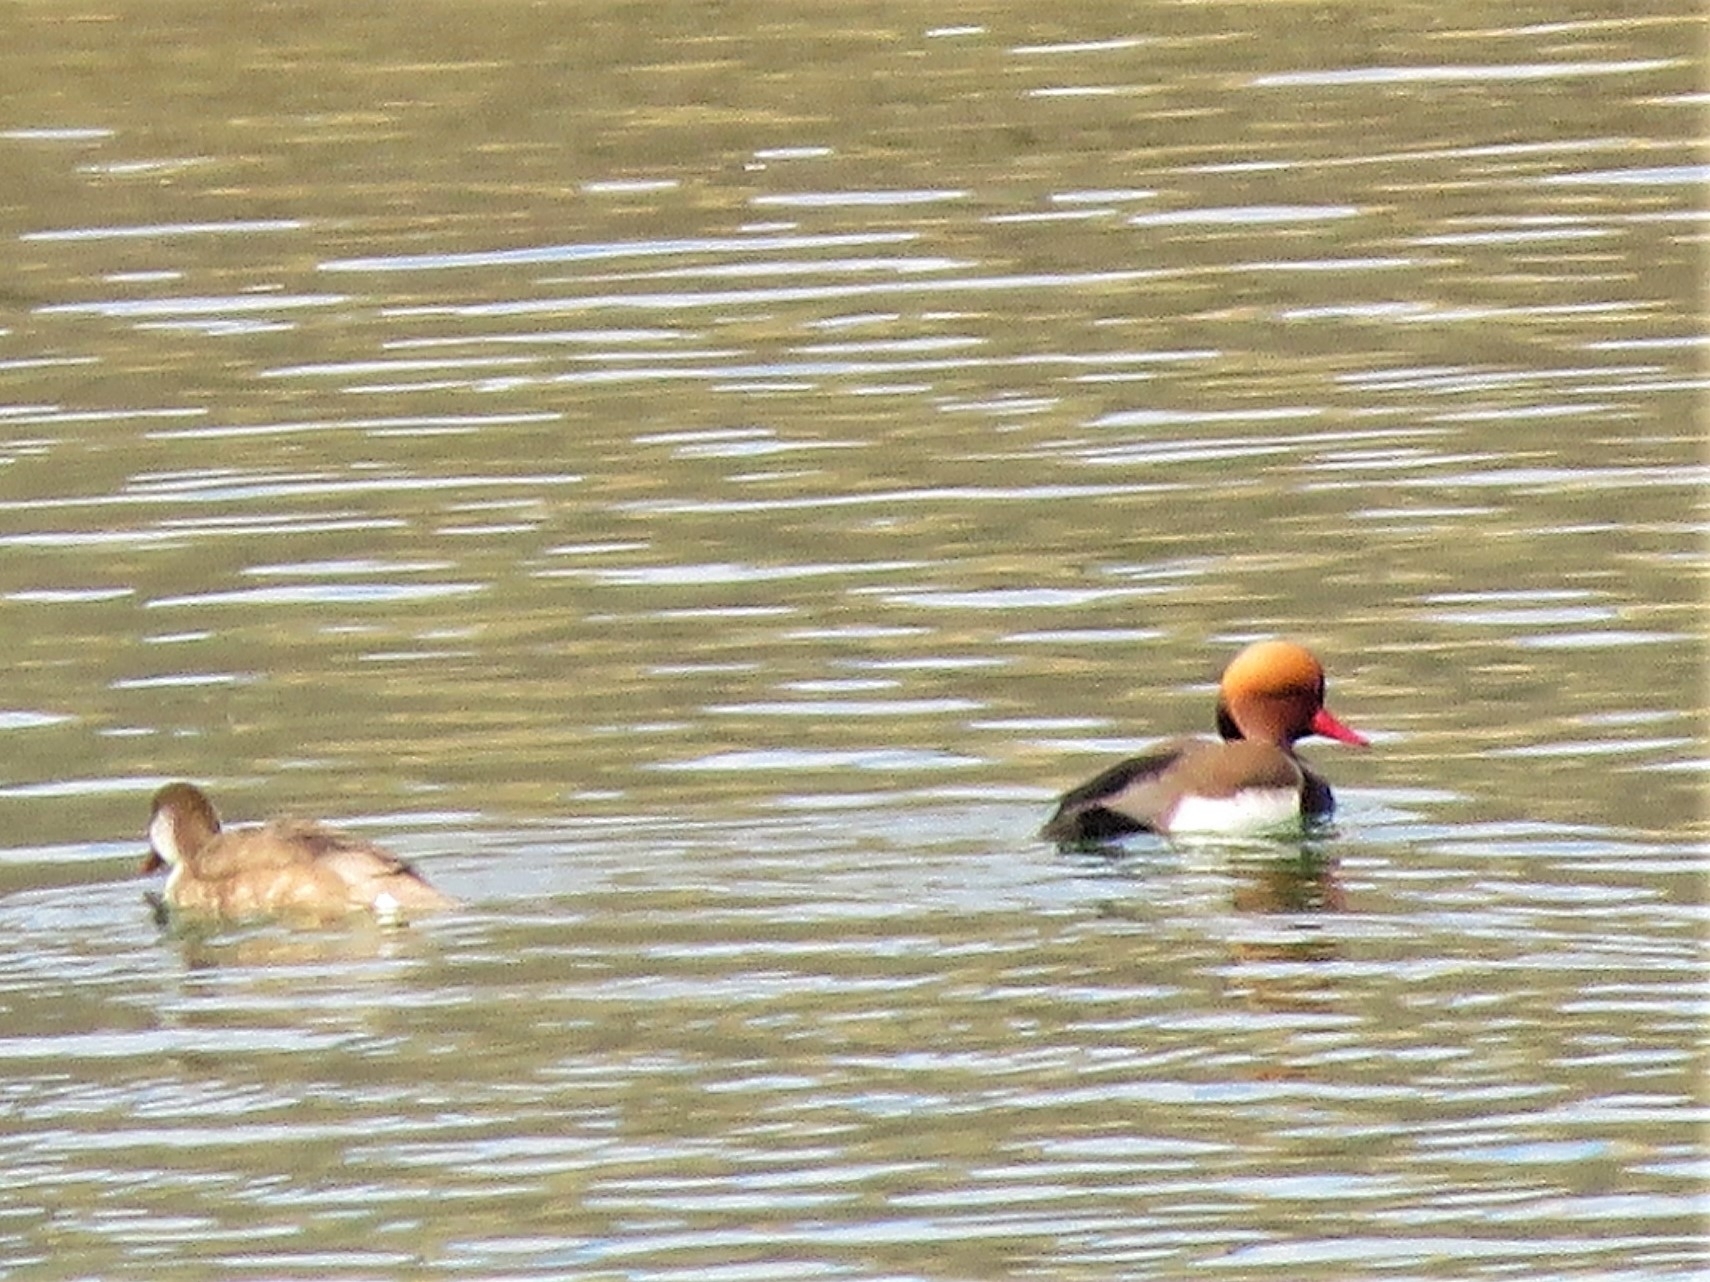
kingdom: Animalia
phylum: Chordata
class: Aves
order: Anseriformes
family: Anatidae
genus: Netta
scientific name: Netta rufina
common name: Red-crested pochard
